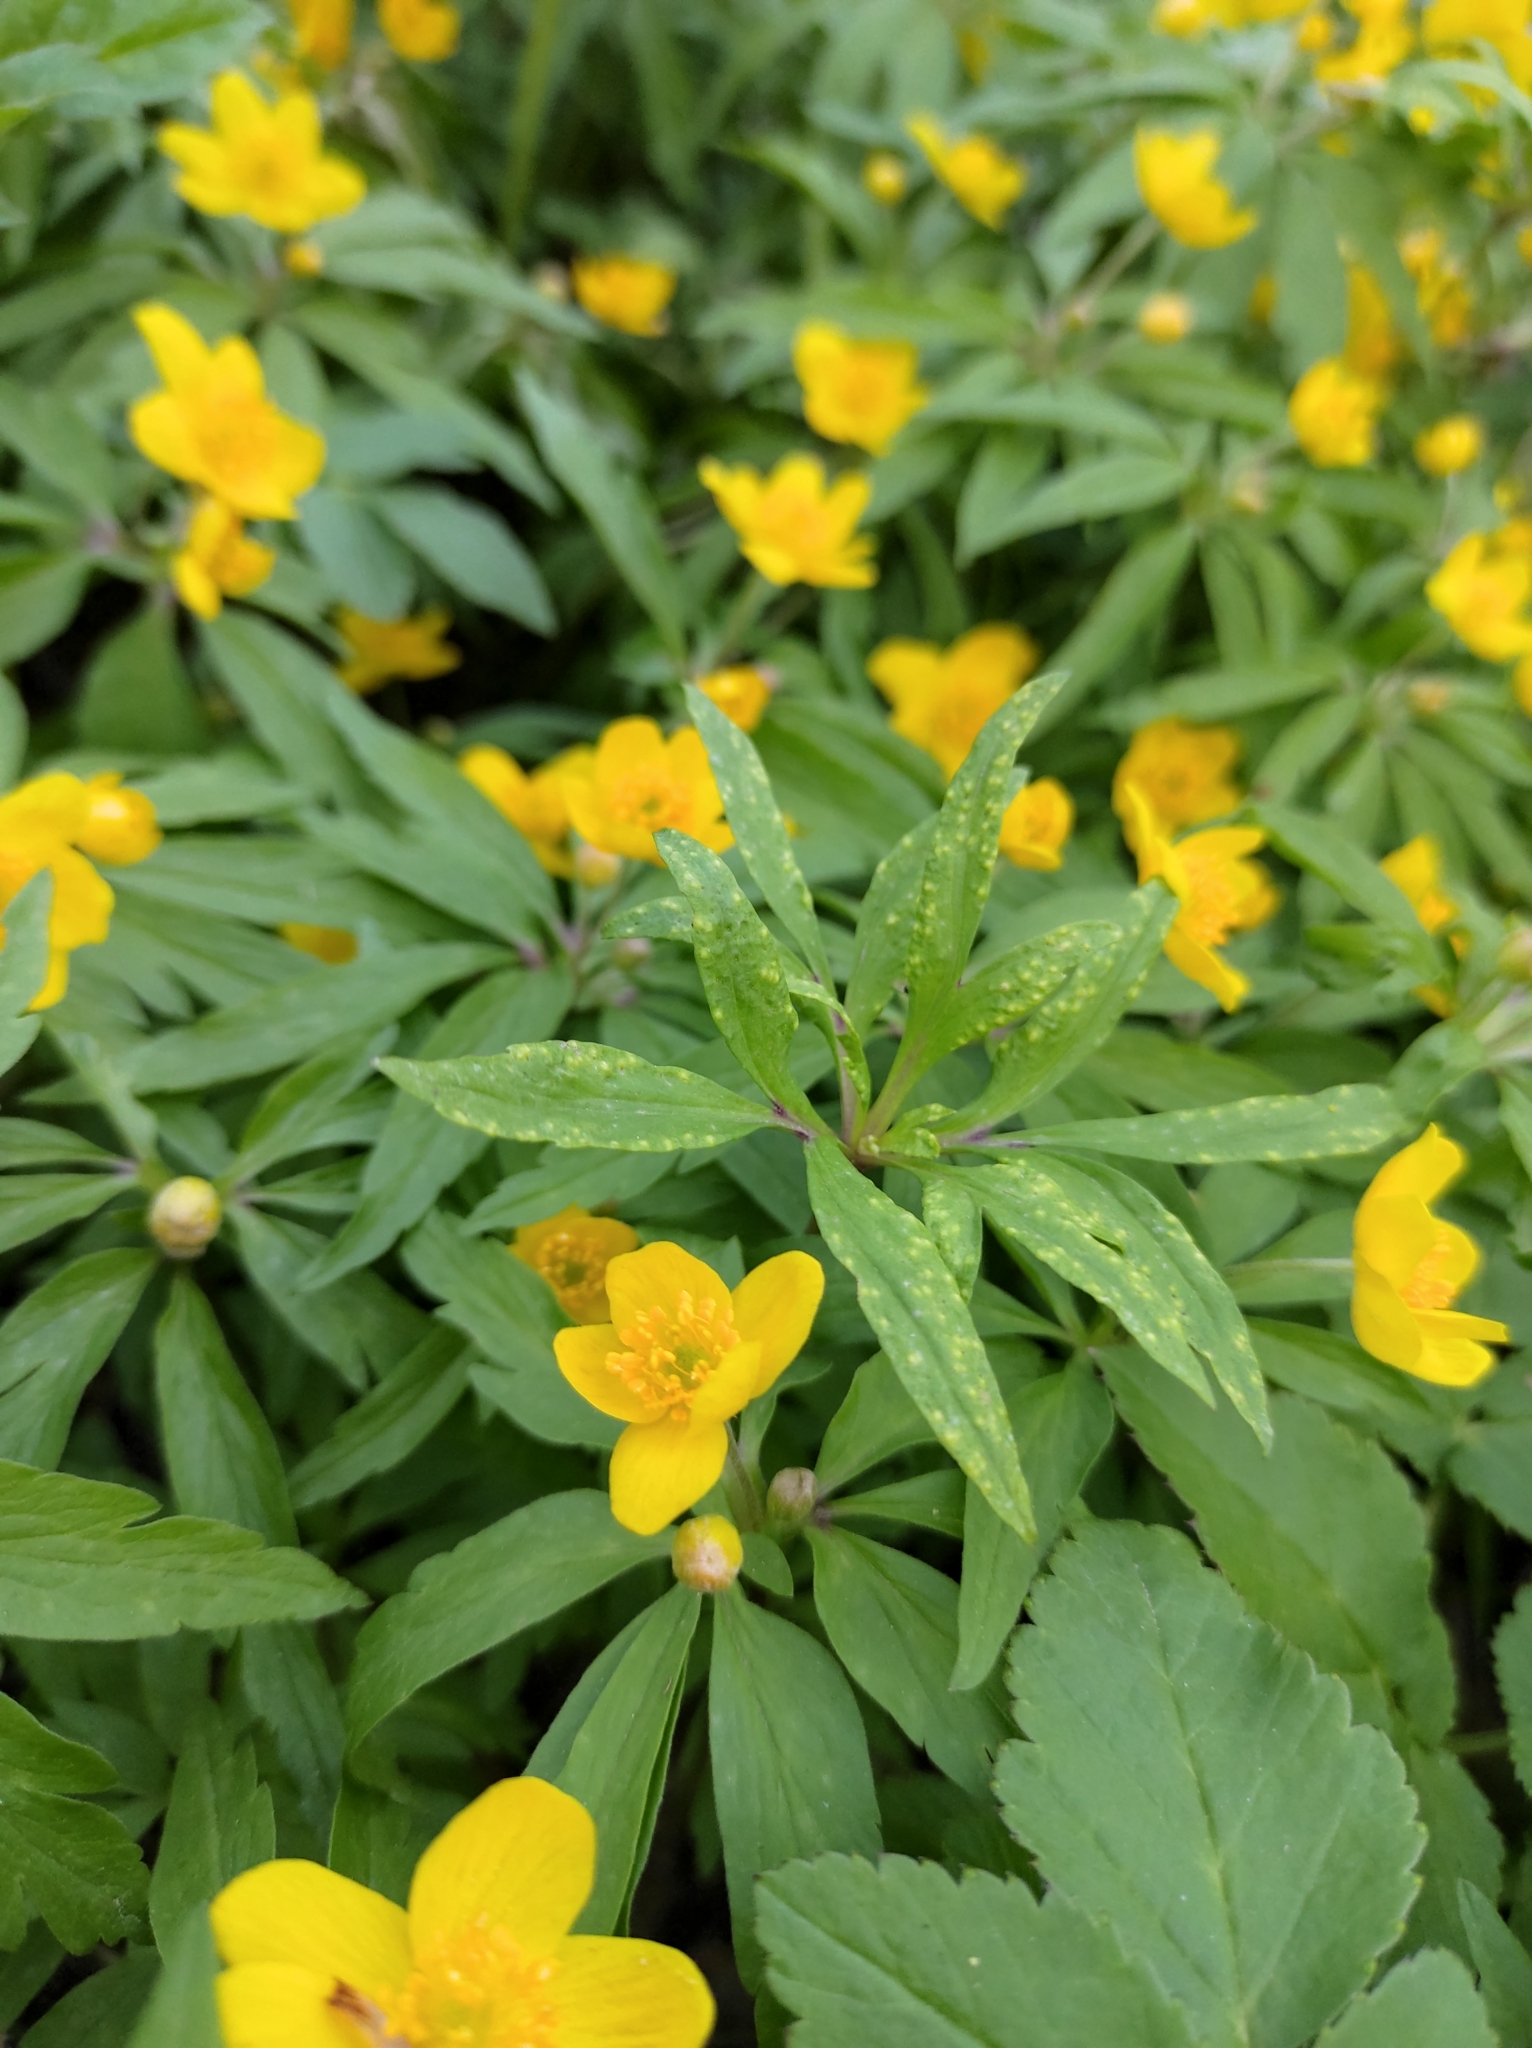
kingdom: Plantae
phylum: Tracheophyta
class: Magnoliopsida
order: Ranunculales
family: Ranunculaceae
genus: Anemone
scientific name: Anemone ranunculoides
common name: Yellow anemone
